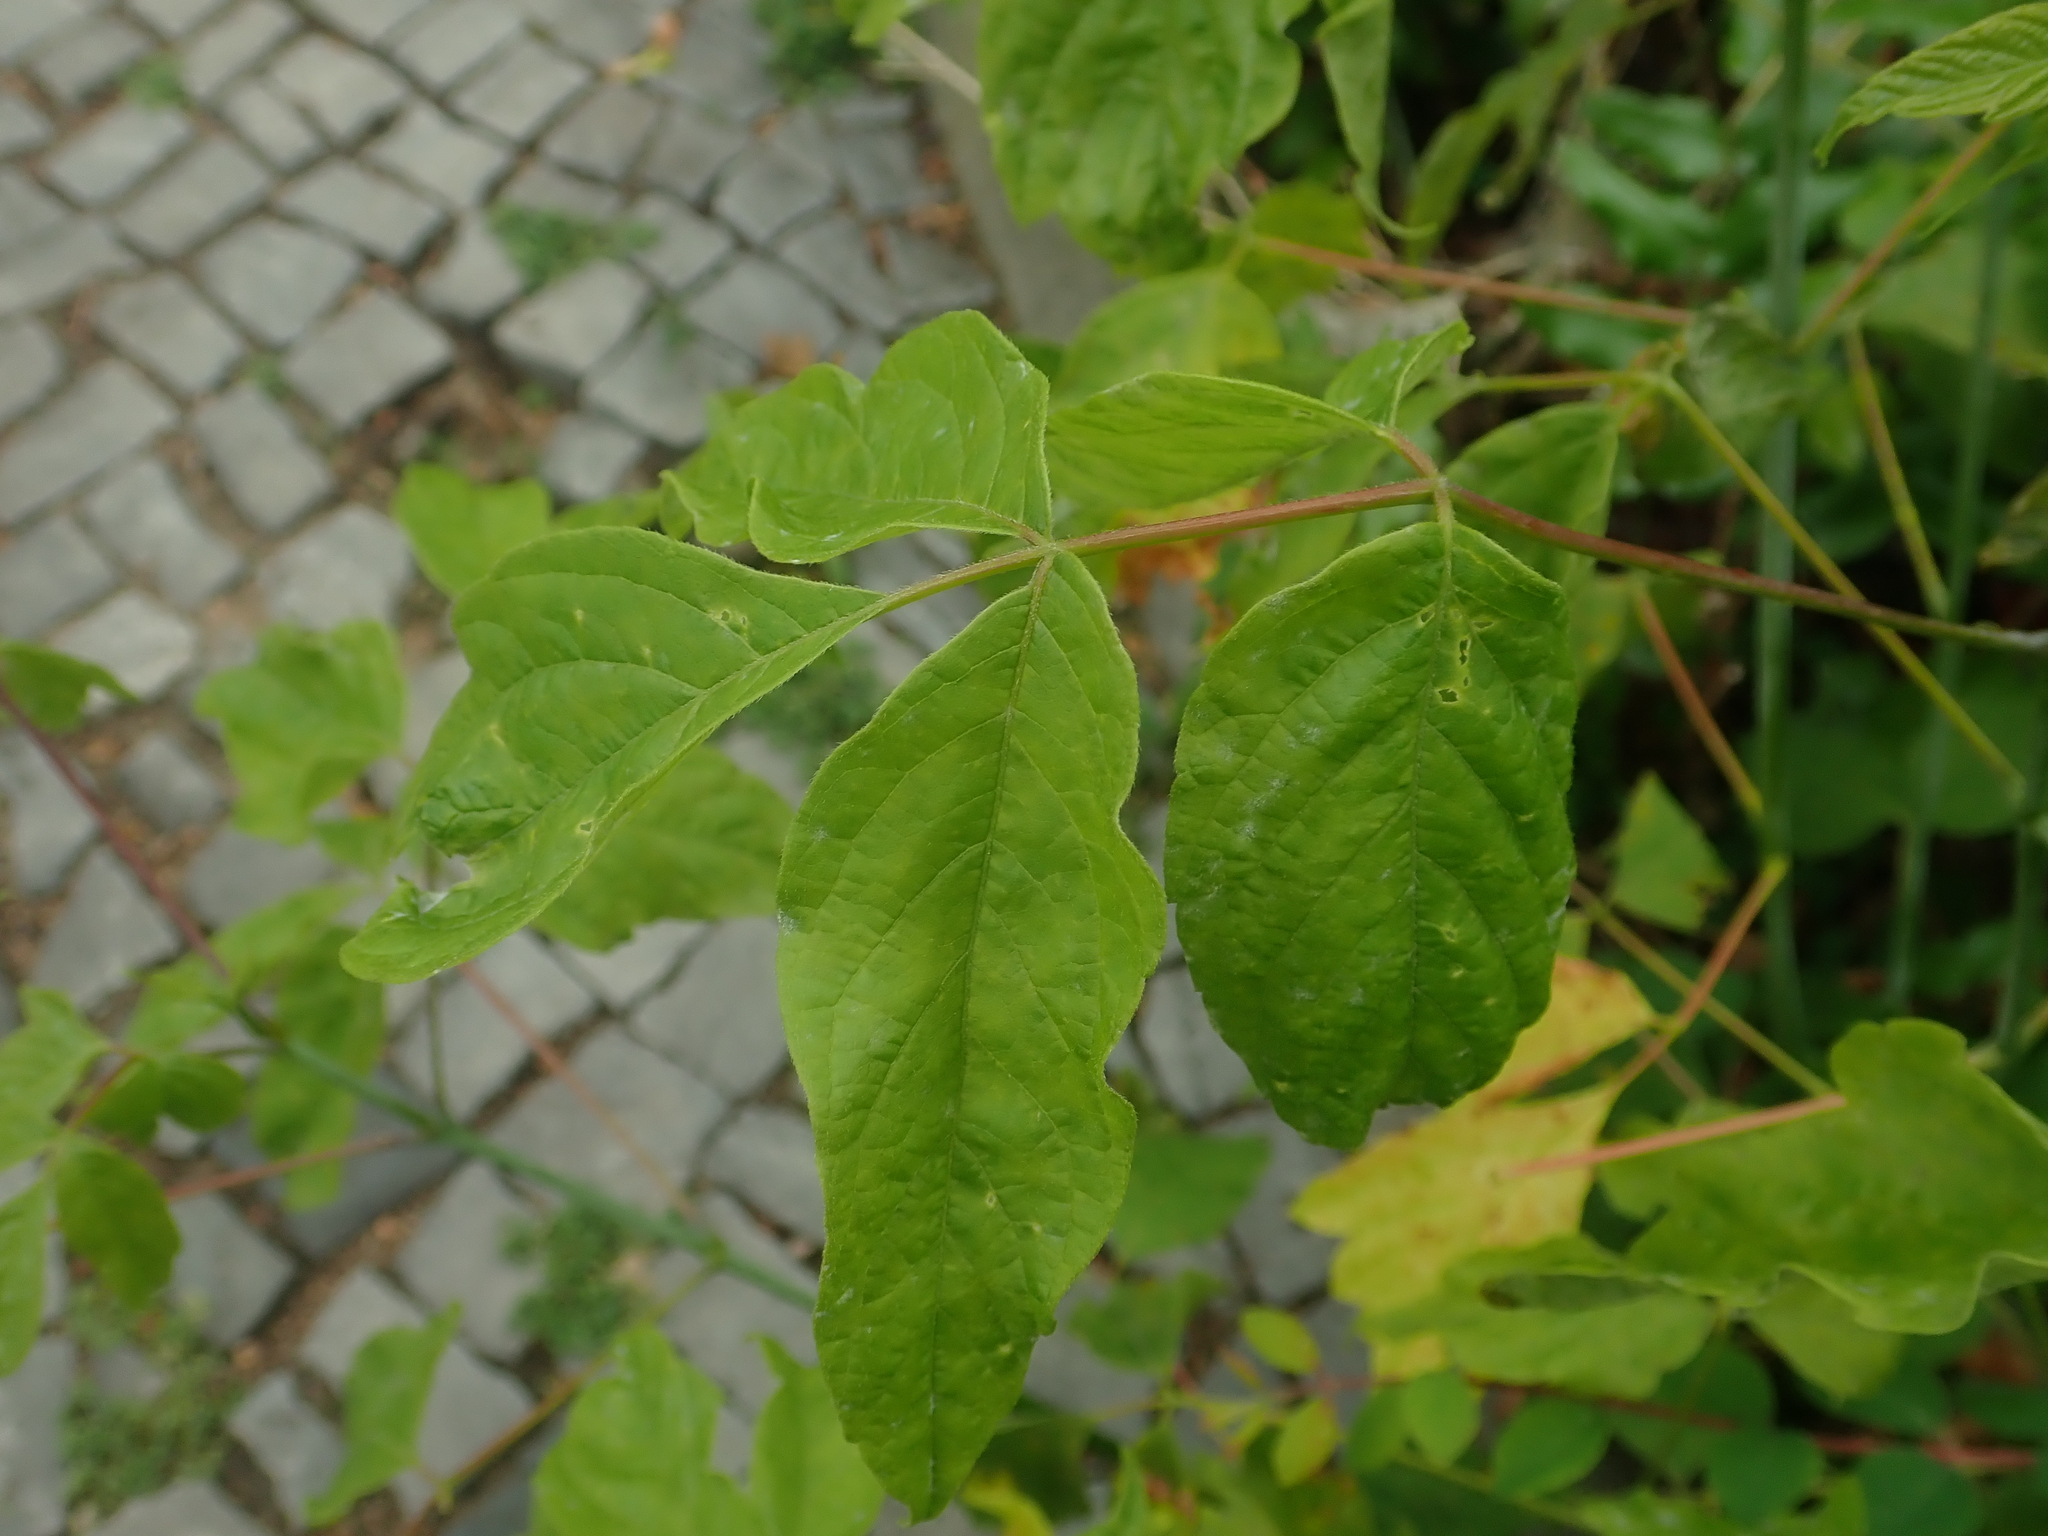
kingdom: Plantae
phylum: Tracheophyta
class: Magnoliopsida
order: Sapindales
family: Sapindaceae
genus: Acer
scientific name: Acer negundo
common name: Ashleaf maple
